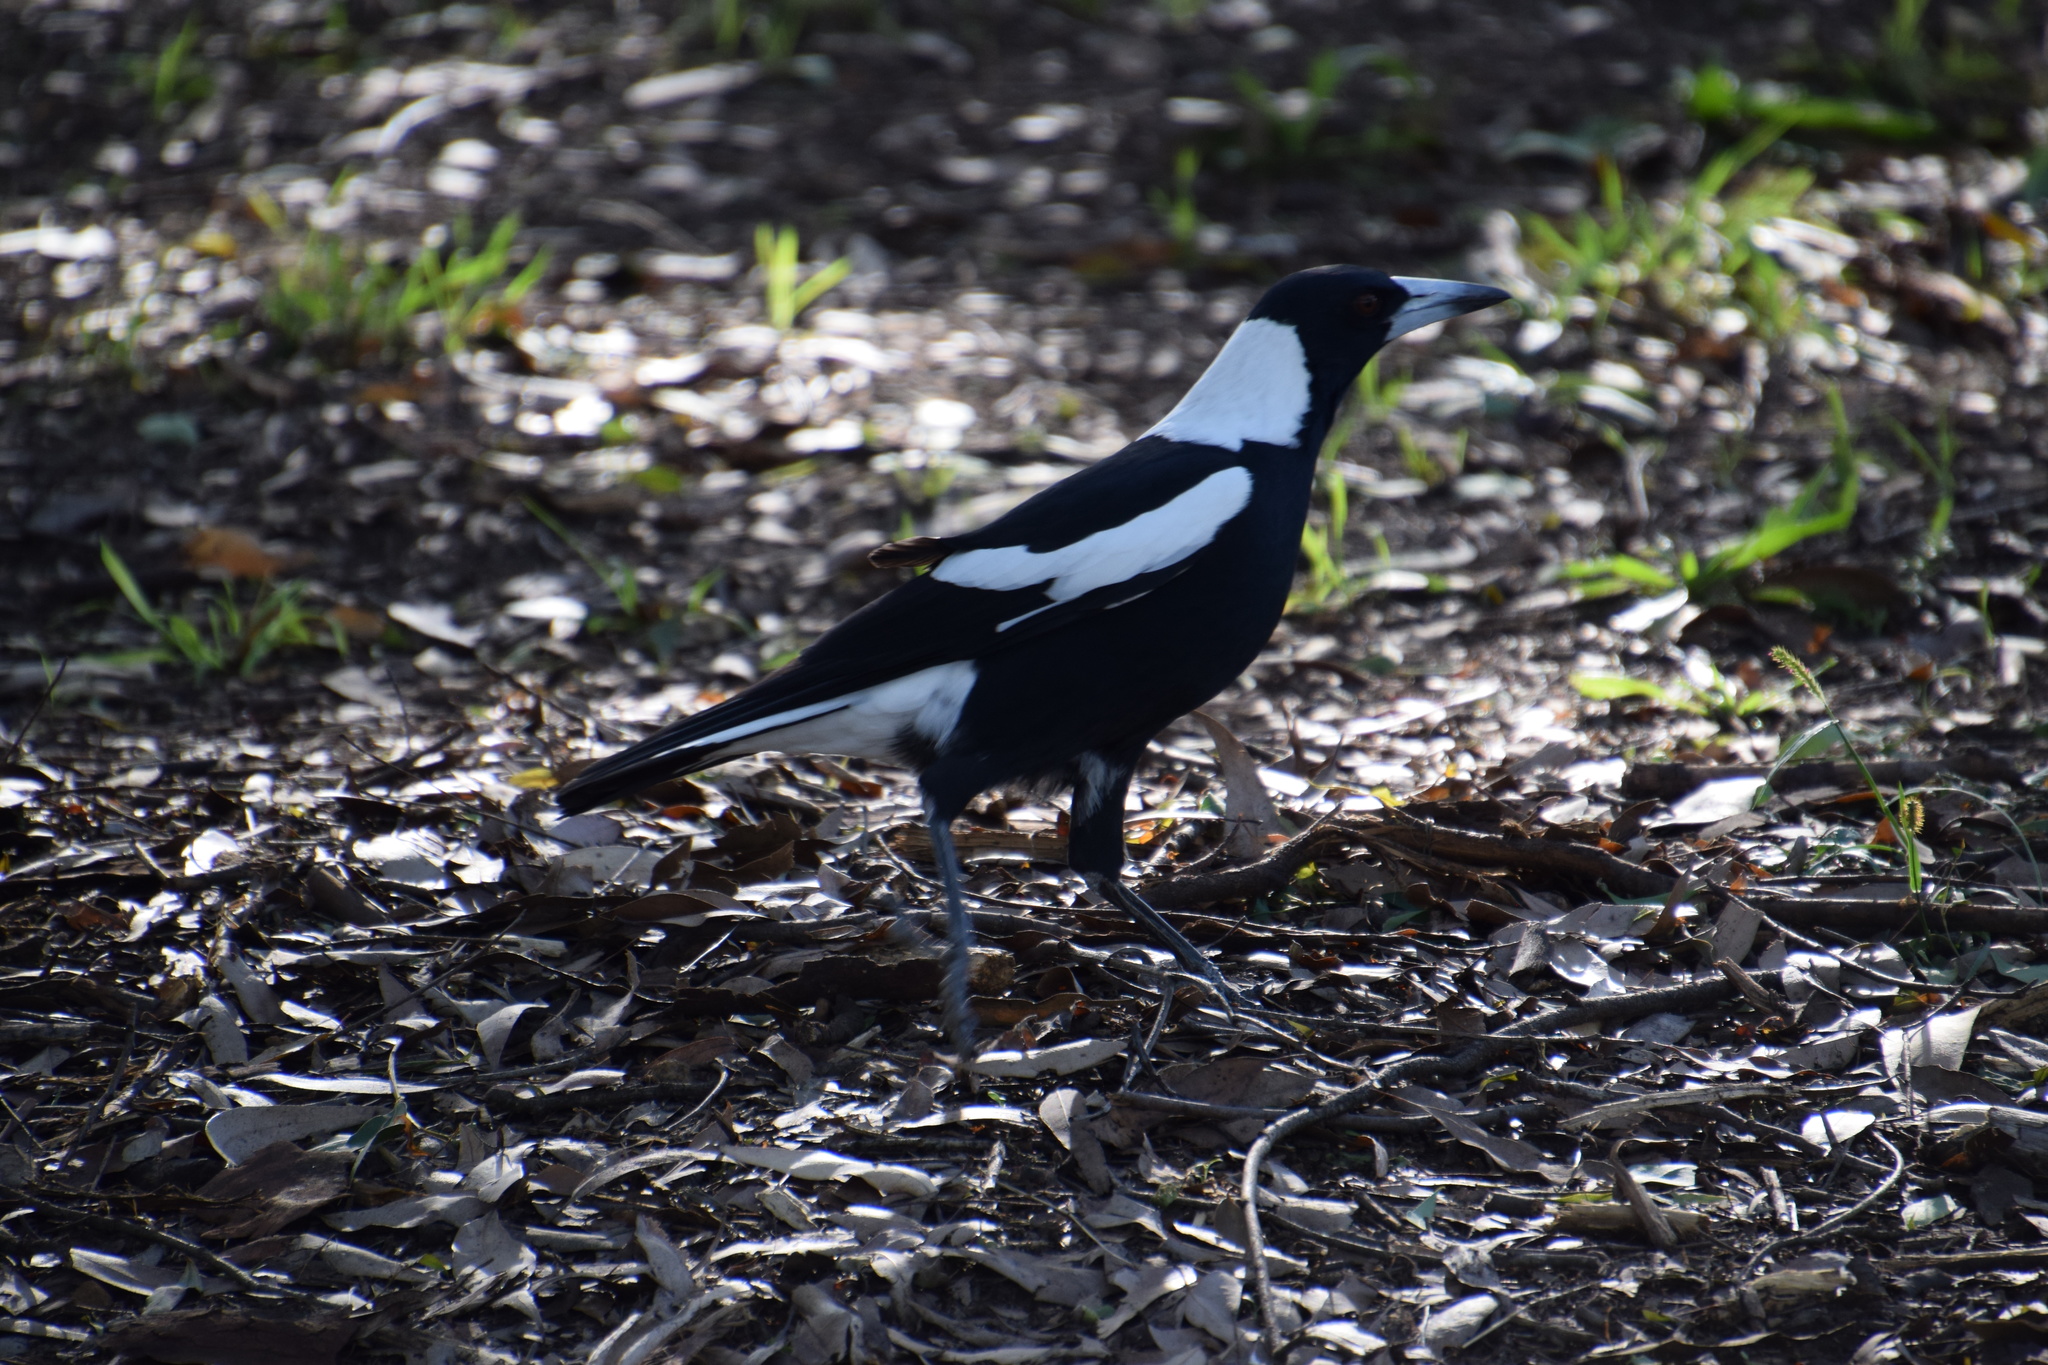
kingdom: Animalia
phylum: Chordata
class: Aves
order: Passeriformes
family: Cracticidae
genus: Gymnorhina
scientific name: Gymnorhina tibicen
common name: Australian magpie
